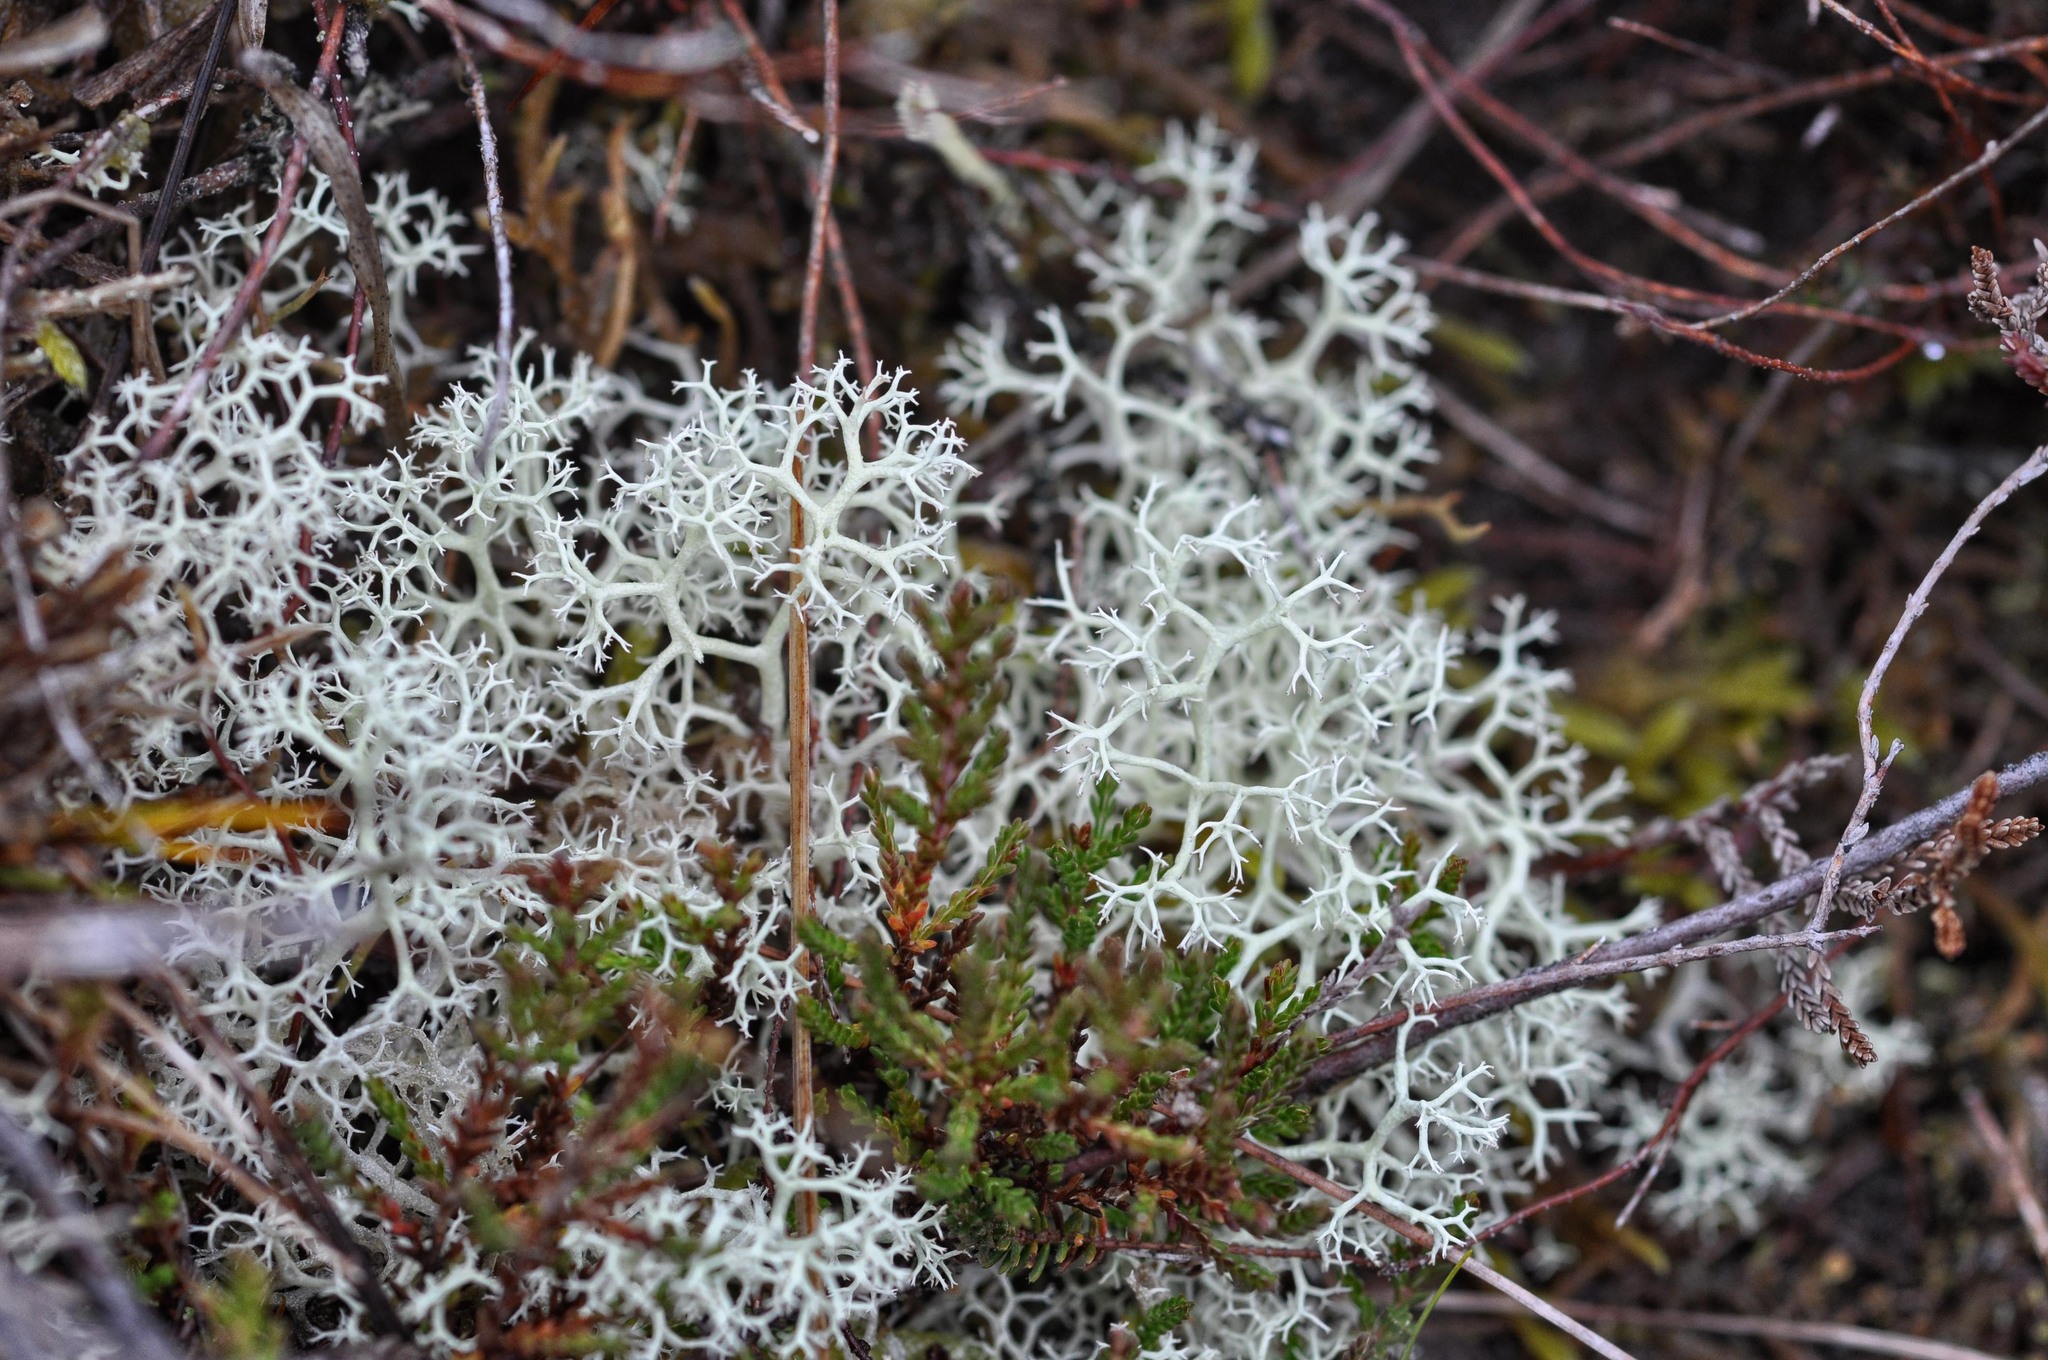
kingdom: Fungi
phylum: Ascomycota
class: Lecanoromycetes
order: Lecanorales
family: Cladoniaceae
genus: Cladonia
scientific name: Cladonia portentosa
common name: Reindeer lichen
